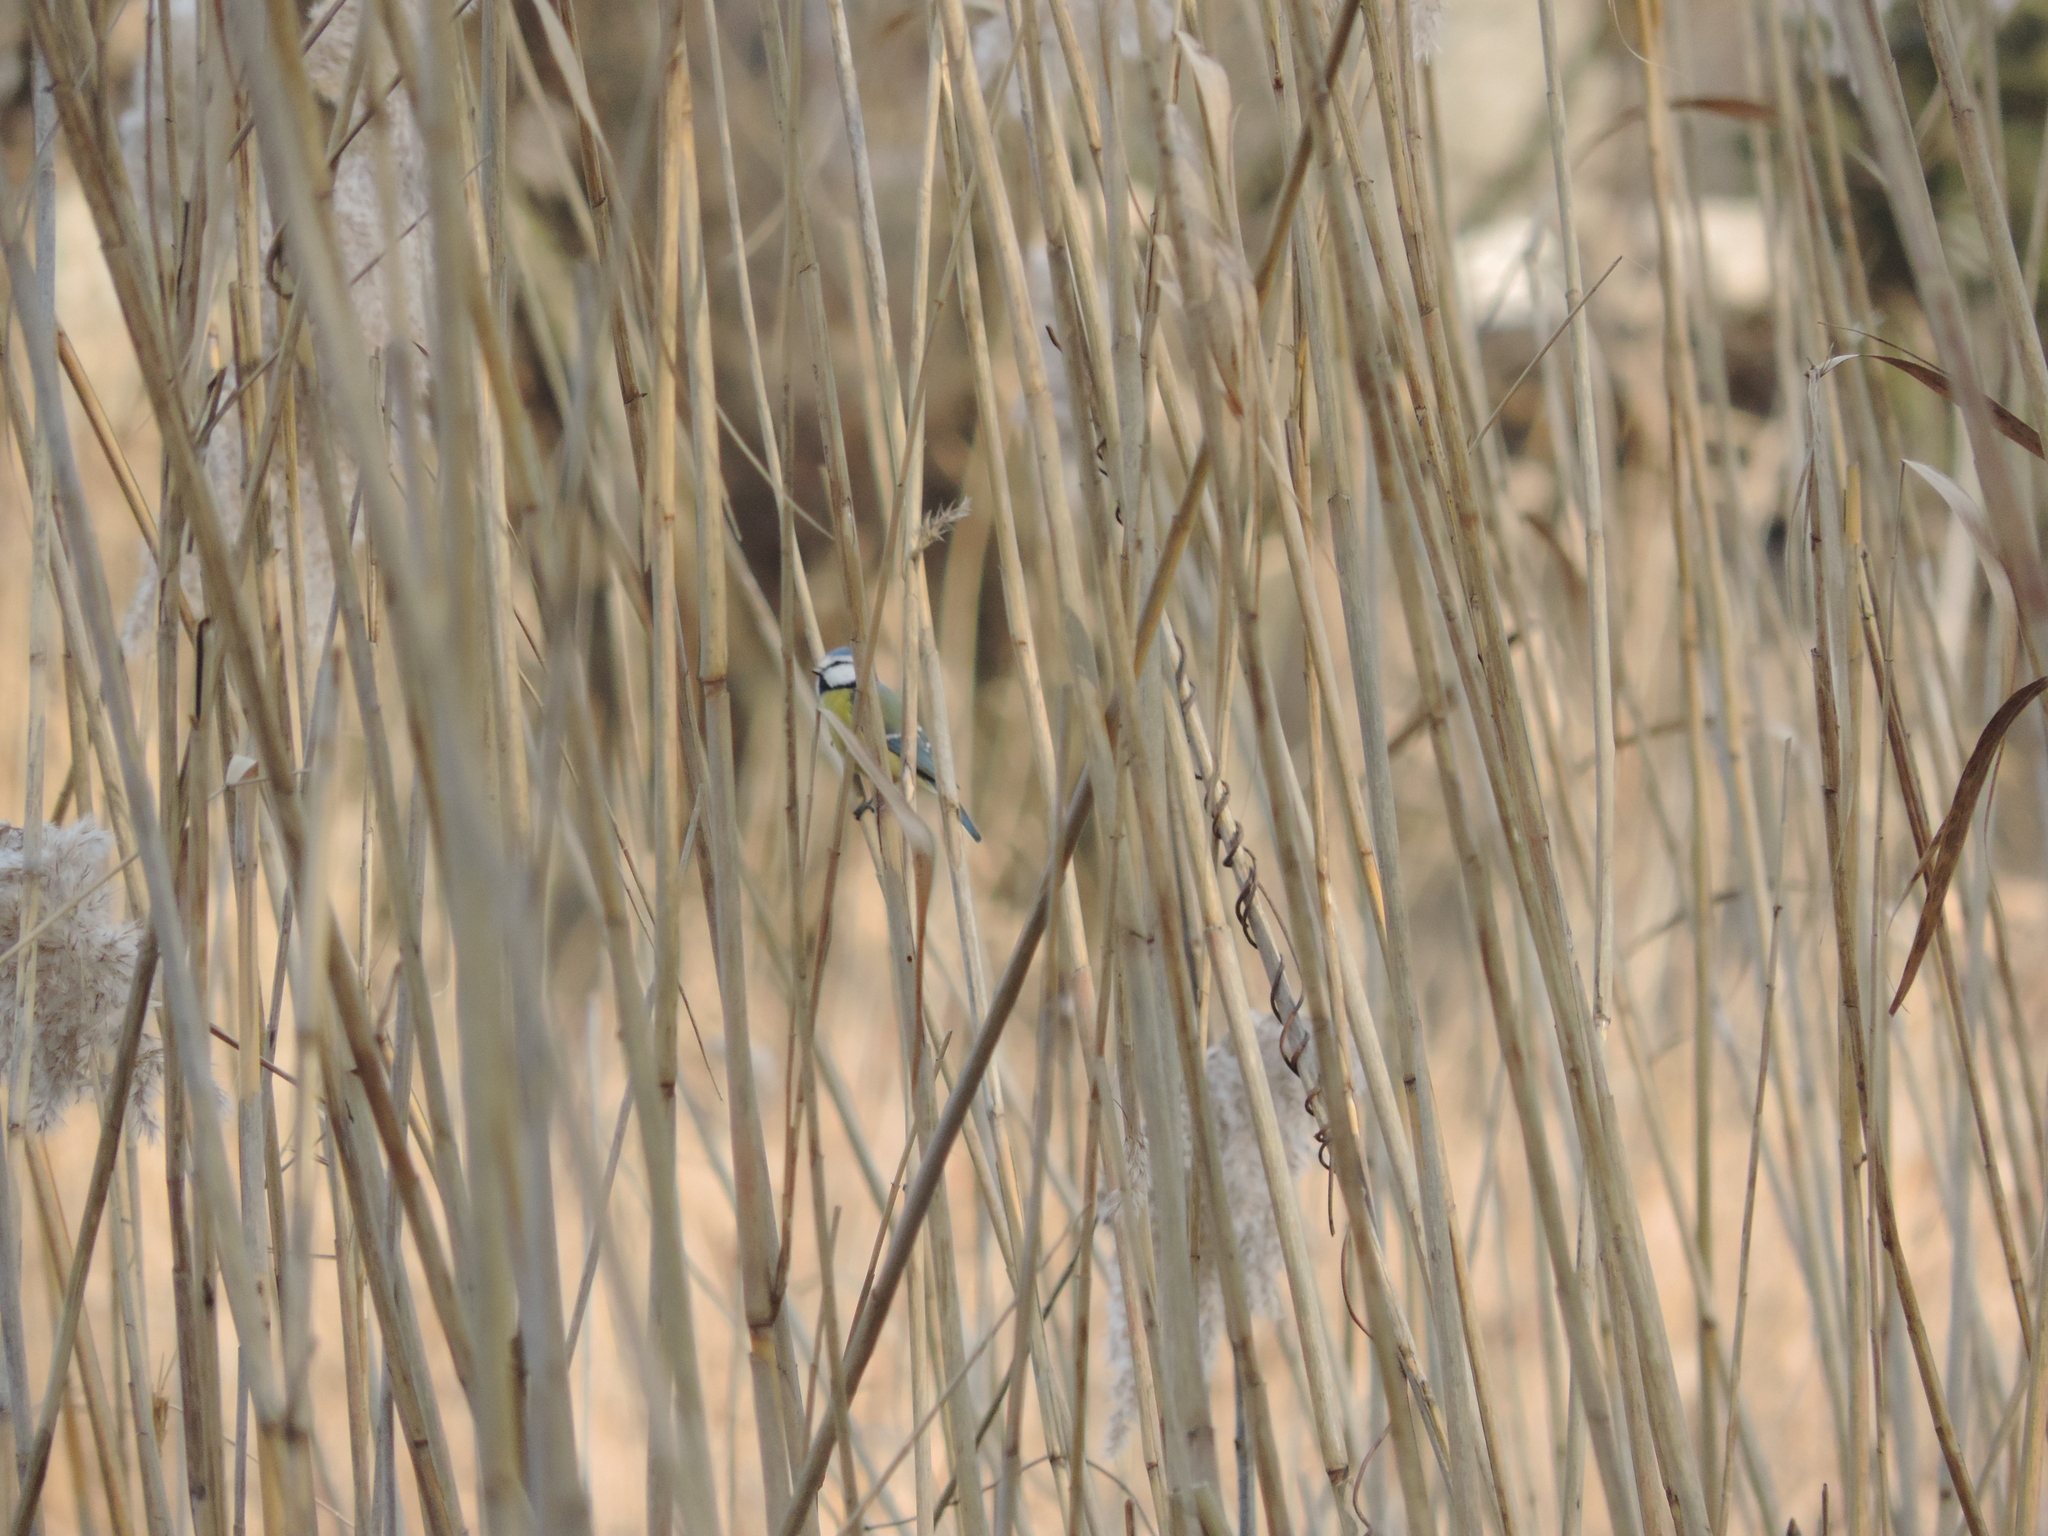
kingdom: Animalia
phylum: Chordata
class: Aves
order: Passeriformes
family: Paridae
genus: Cyanistes
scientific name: Cyanistes caeruleus
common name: Eurasian blue tit
